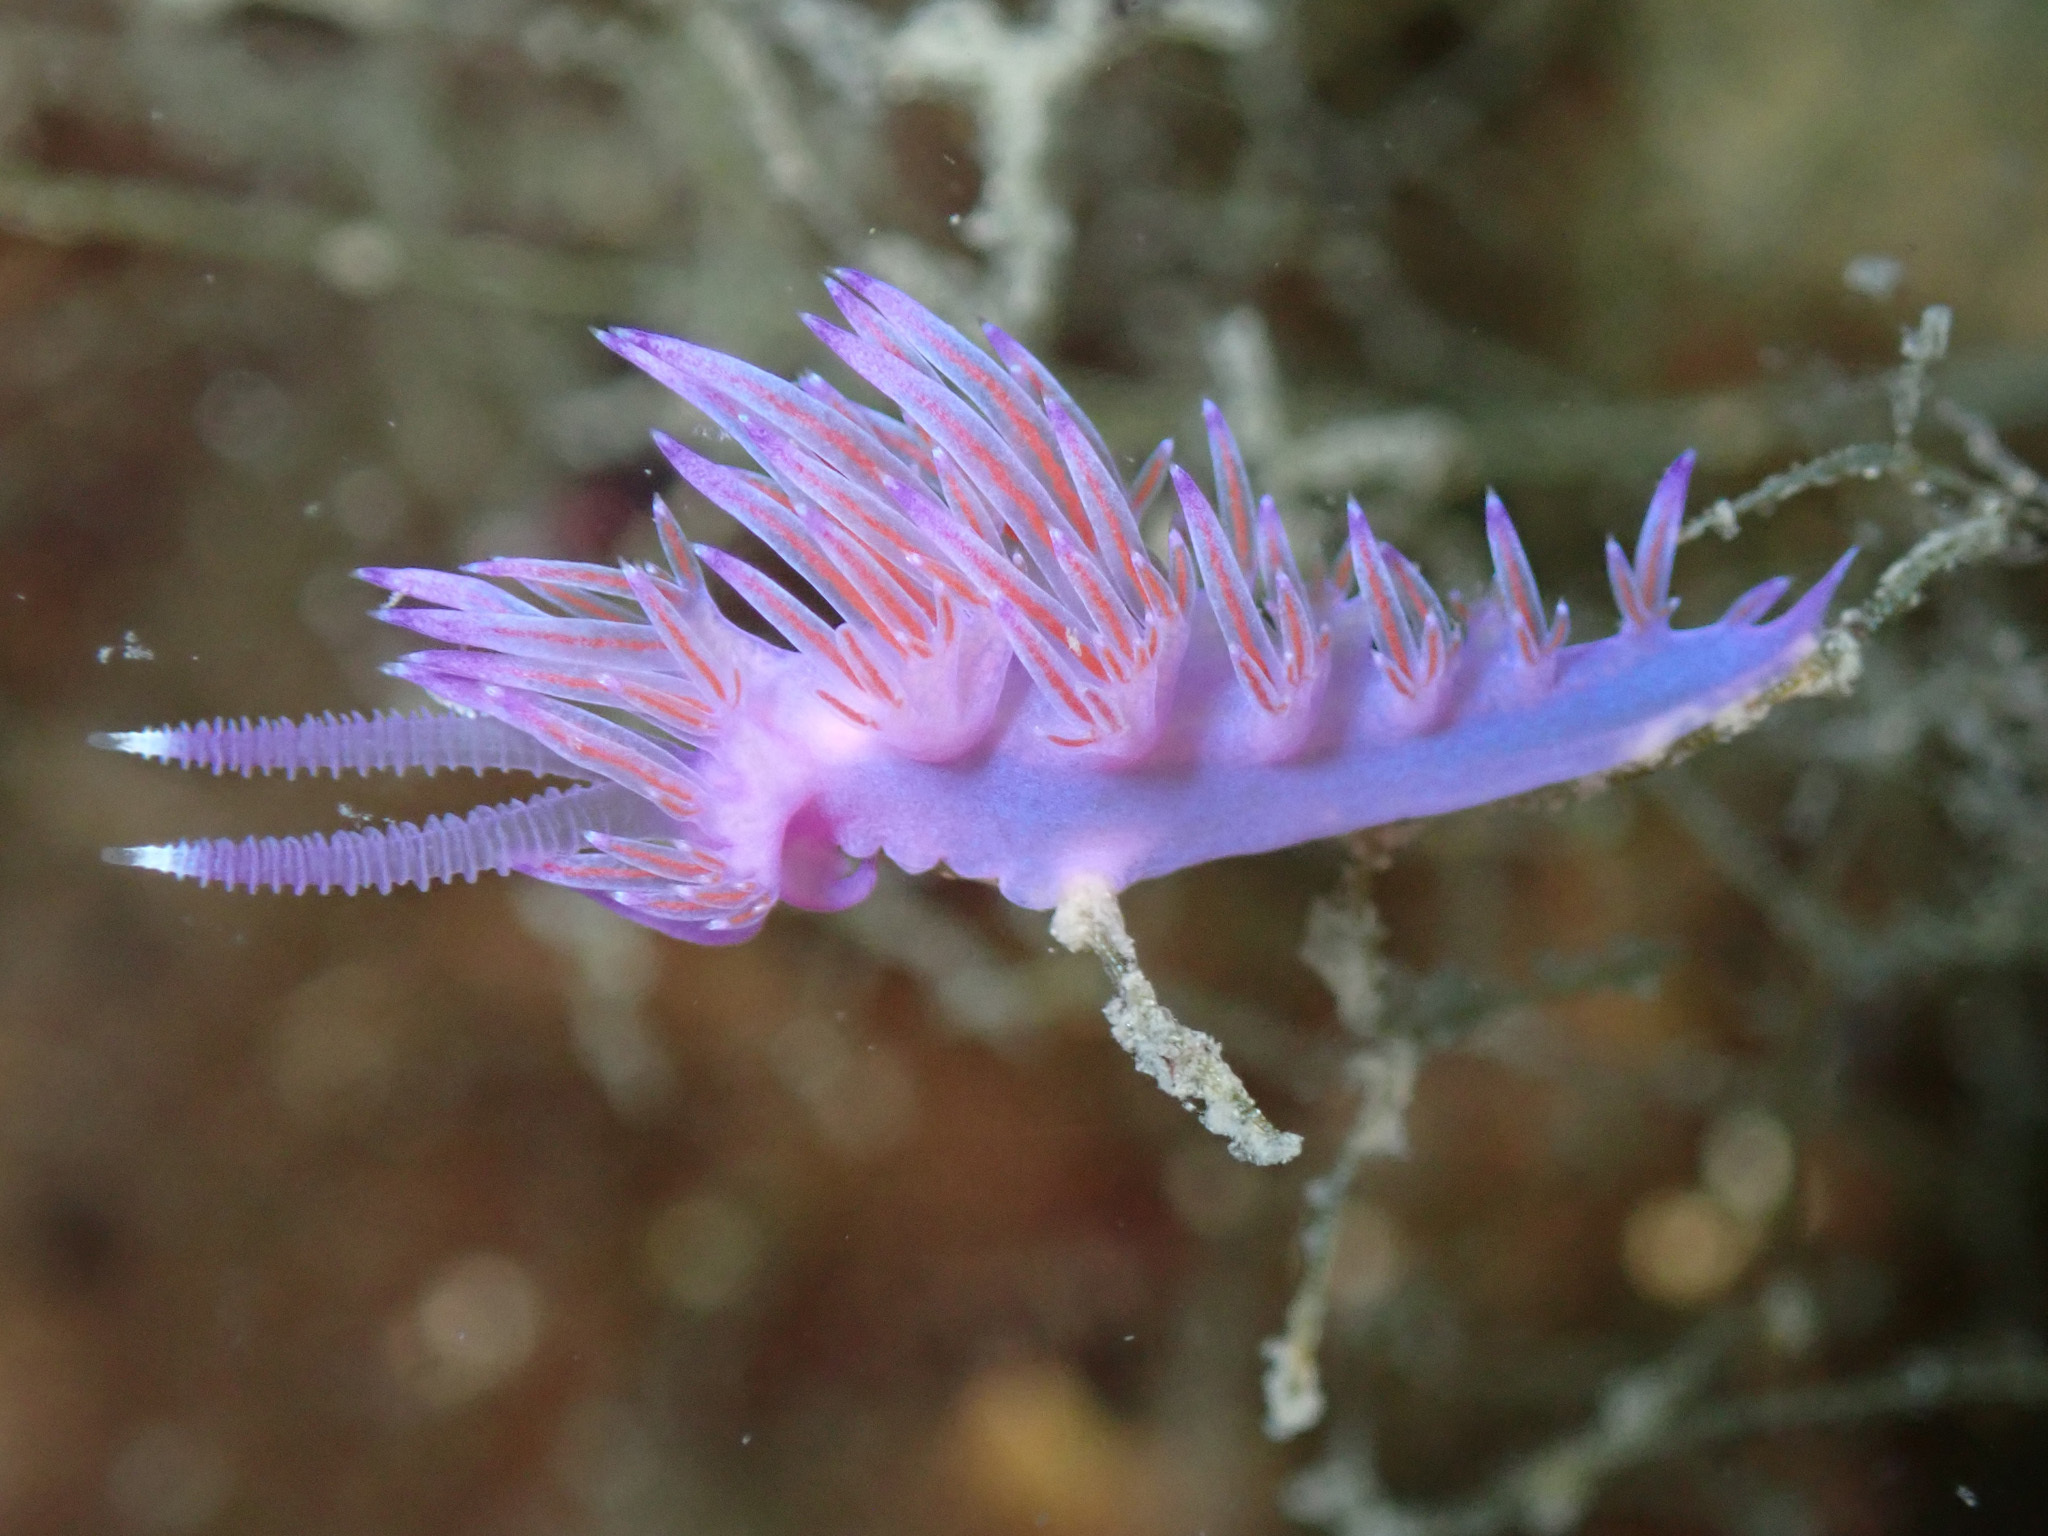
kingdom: Animalia
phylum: Mollusca
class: Gastropoda
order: Nudibranchia
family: Flabellinidae
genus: Flabellina
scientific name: Flabellina affinis
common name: Mediterranean violet aeolid
